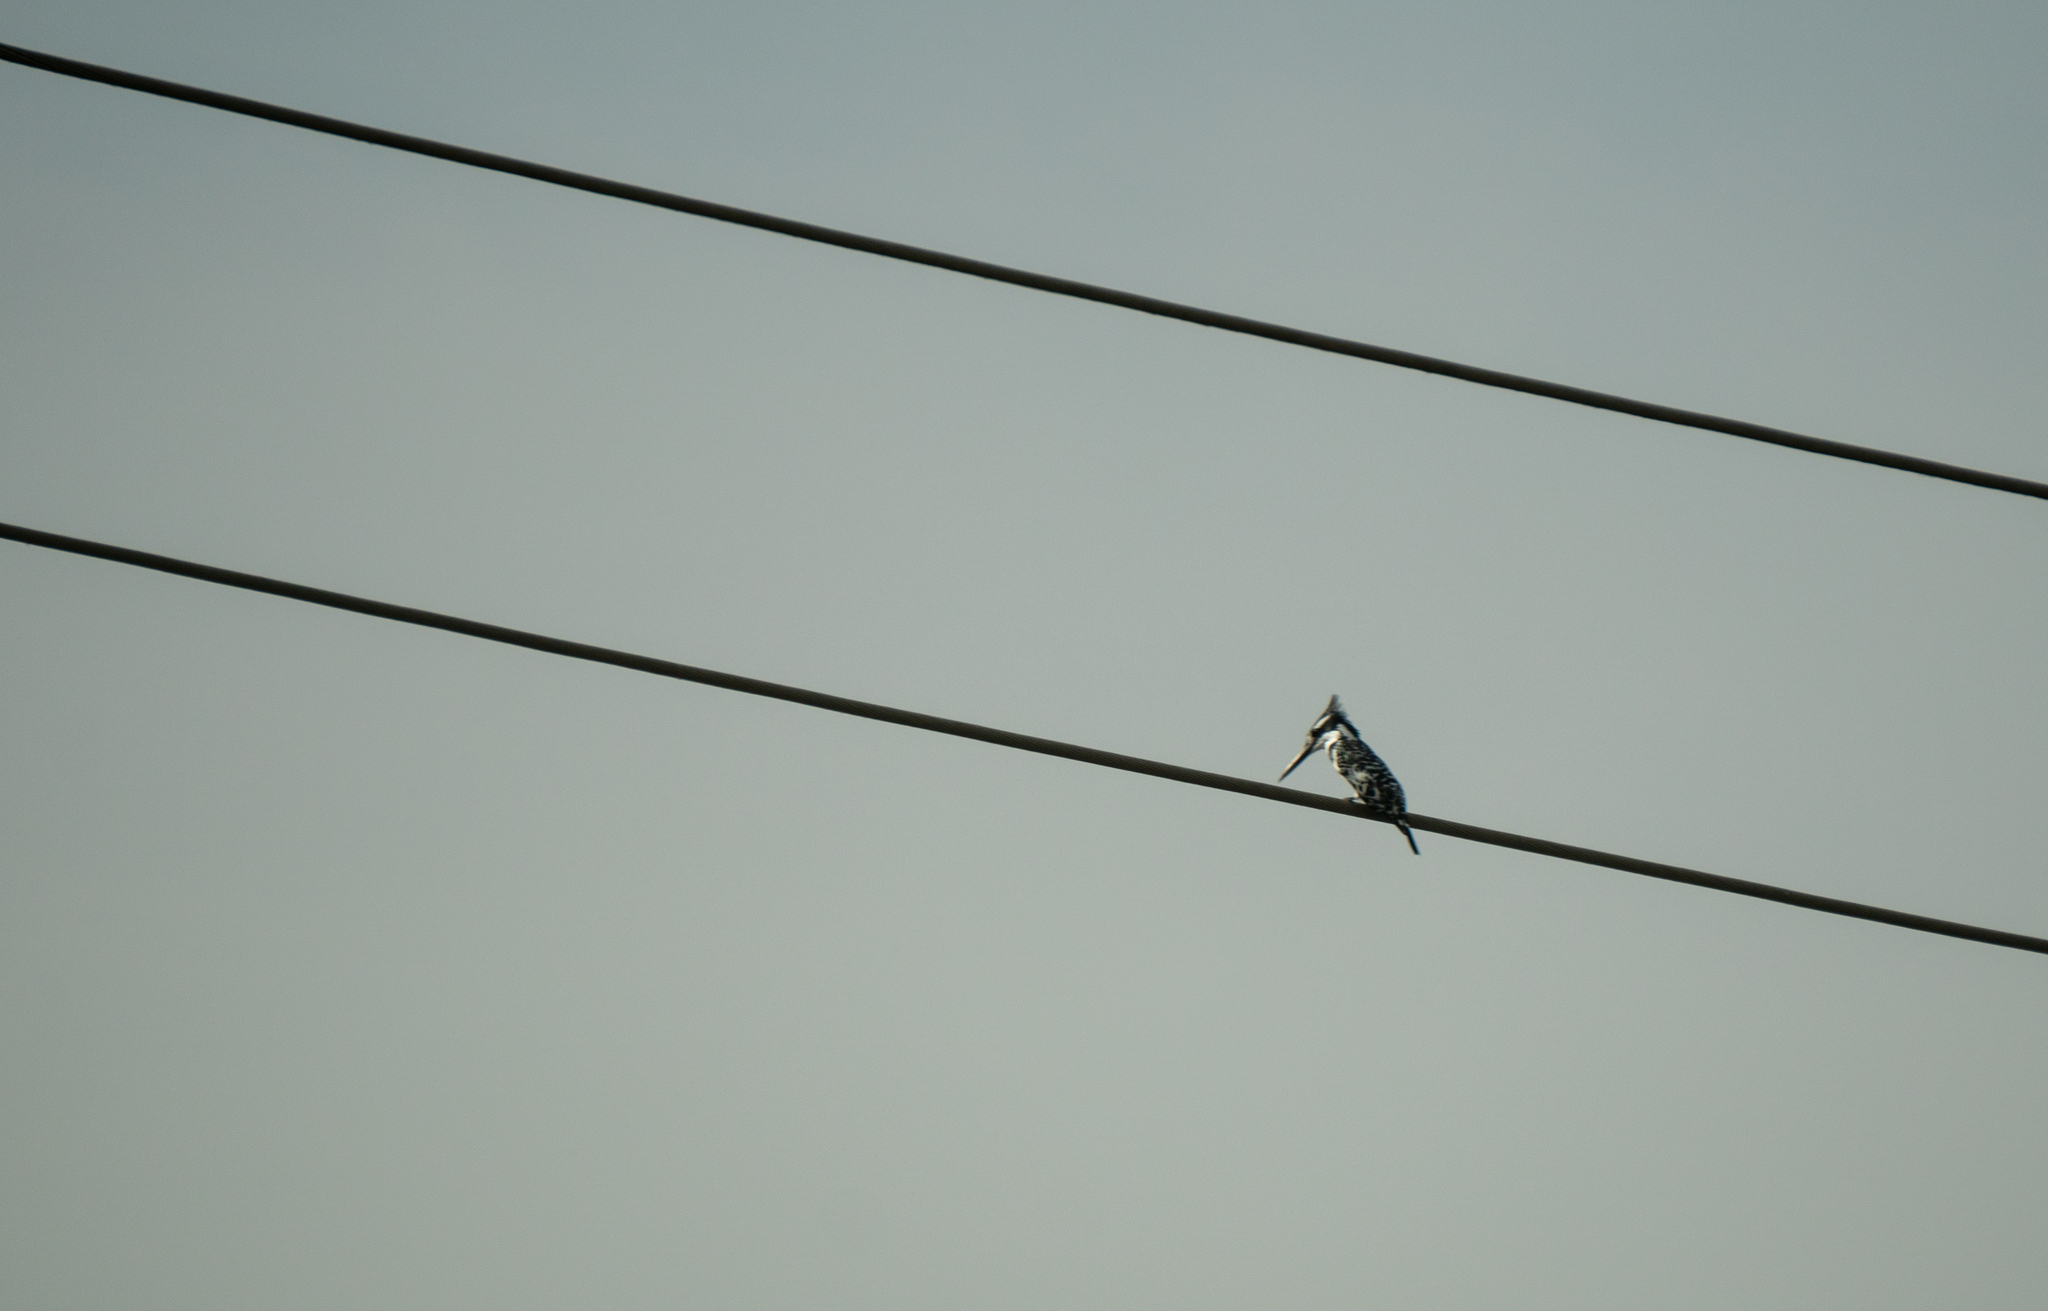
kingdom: Animalia
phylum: Chordata
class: Aves
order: Coraciiformes
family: Alcedinidae
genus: Ceryle
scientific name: Ceryle rudis
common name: Pied kingfisher
